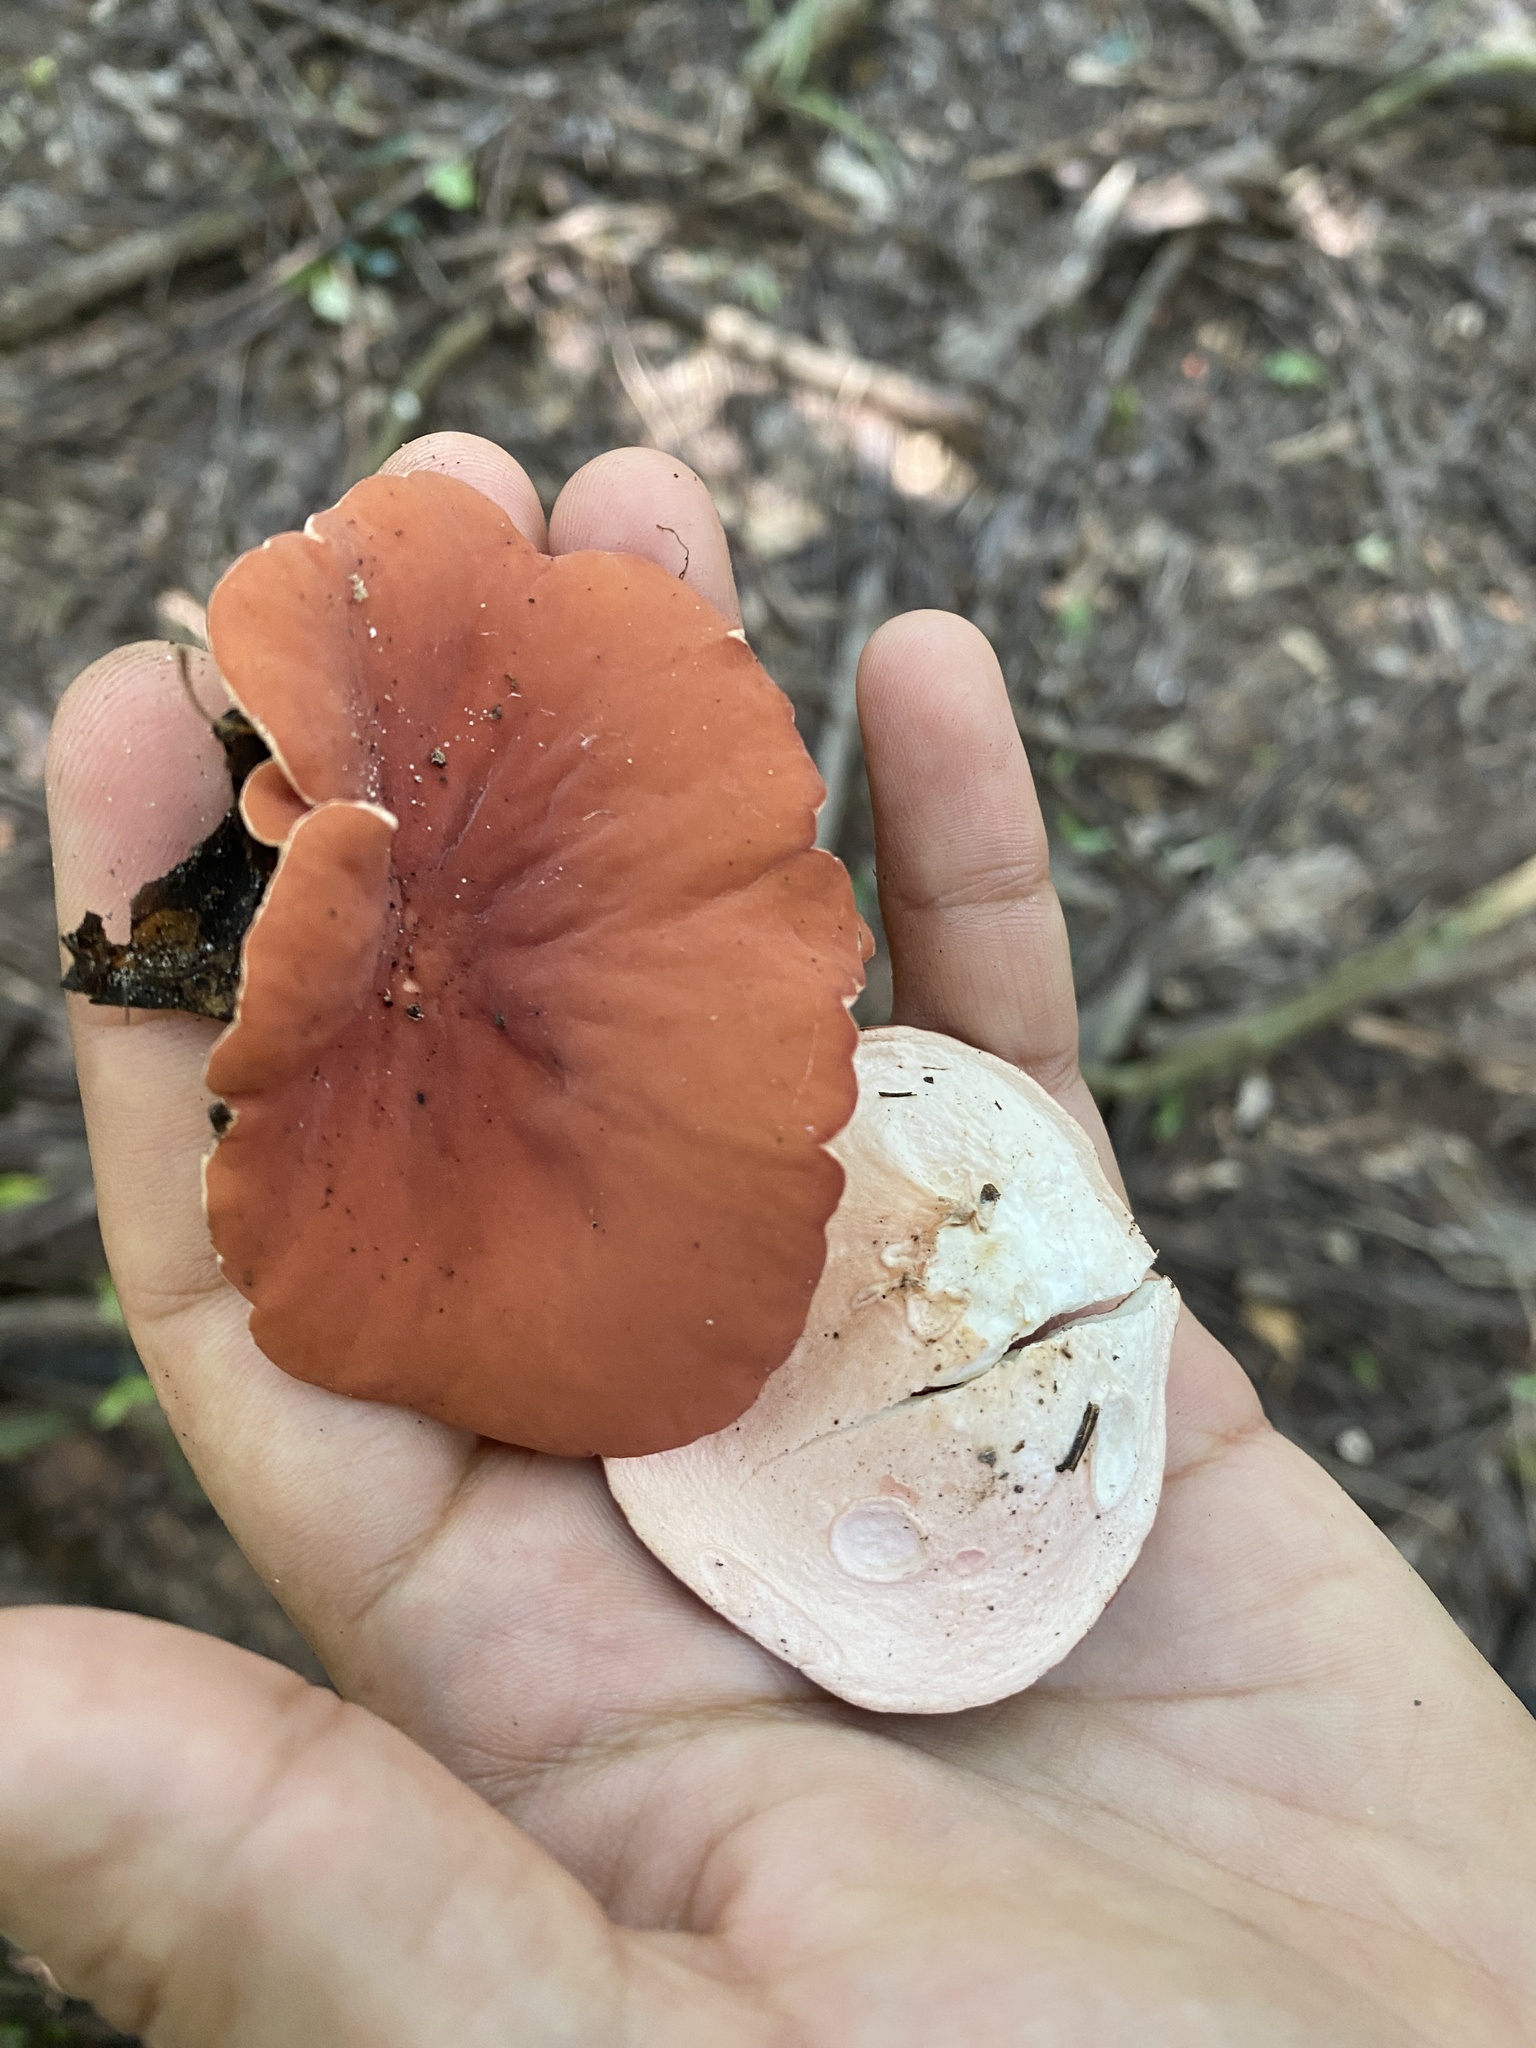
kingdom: Fungi
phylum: Ascomycota
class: Pezizomycetes
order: Pezizales
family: Sarcoscyphaceae
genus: Phillipsia
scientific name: Phillipsia domingensis
